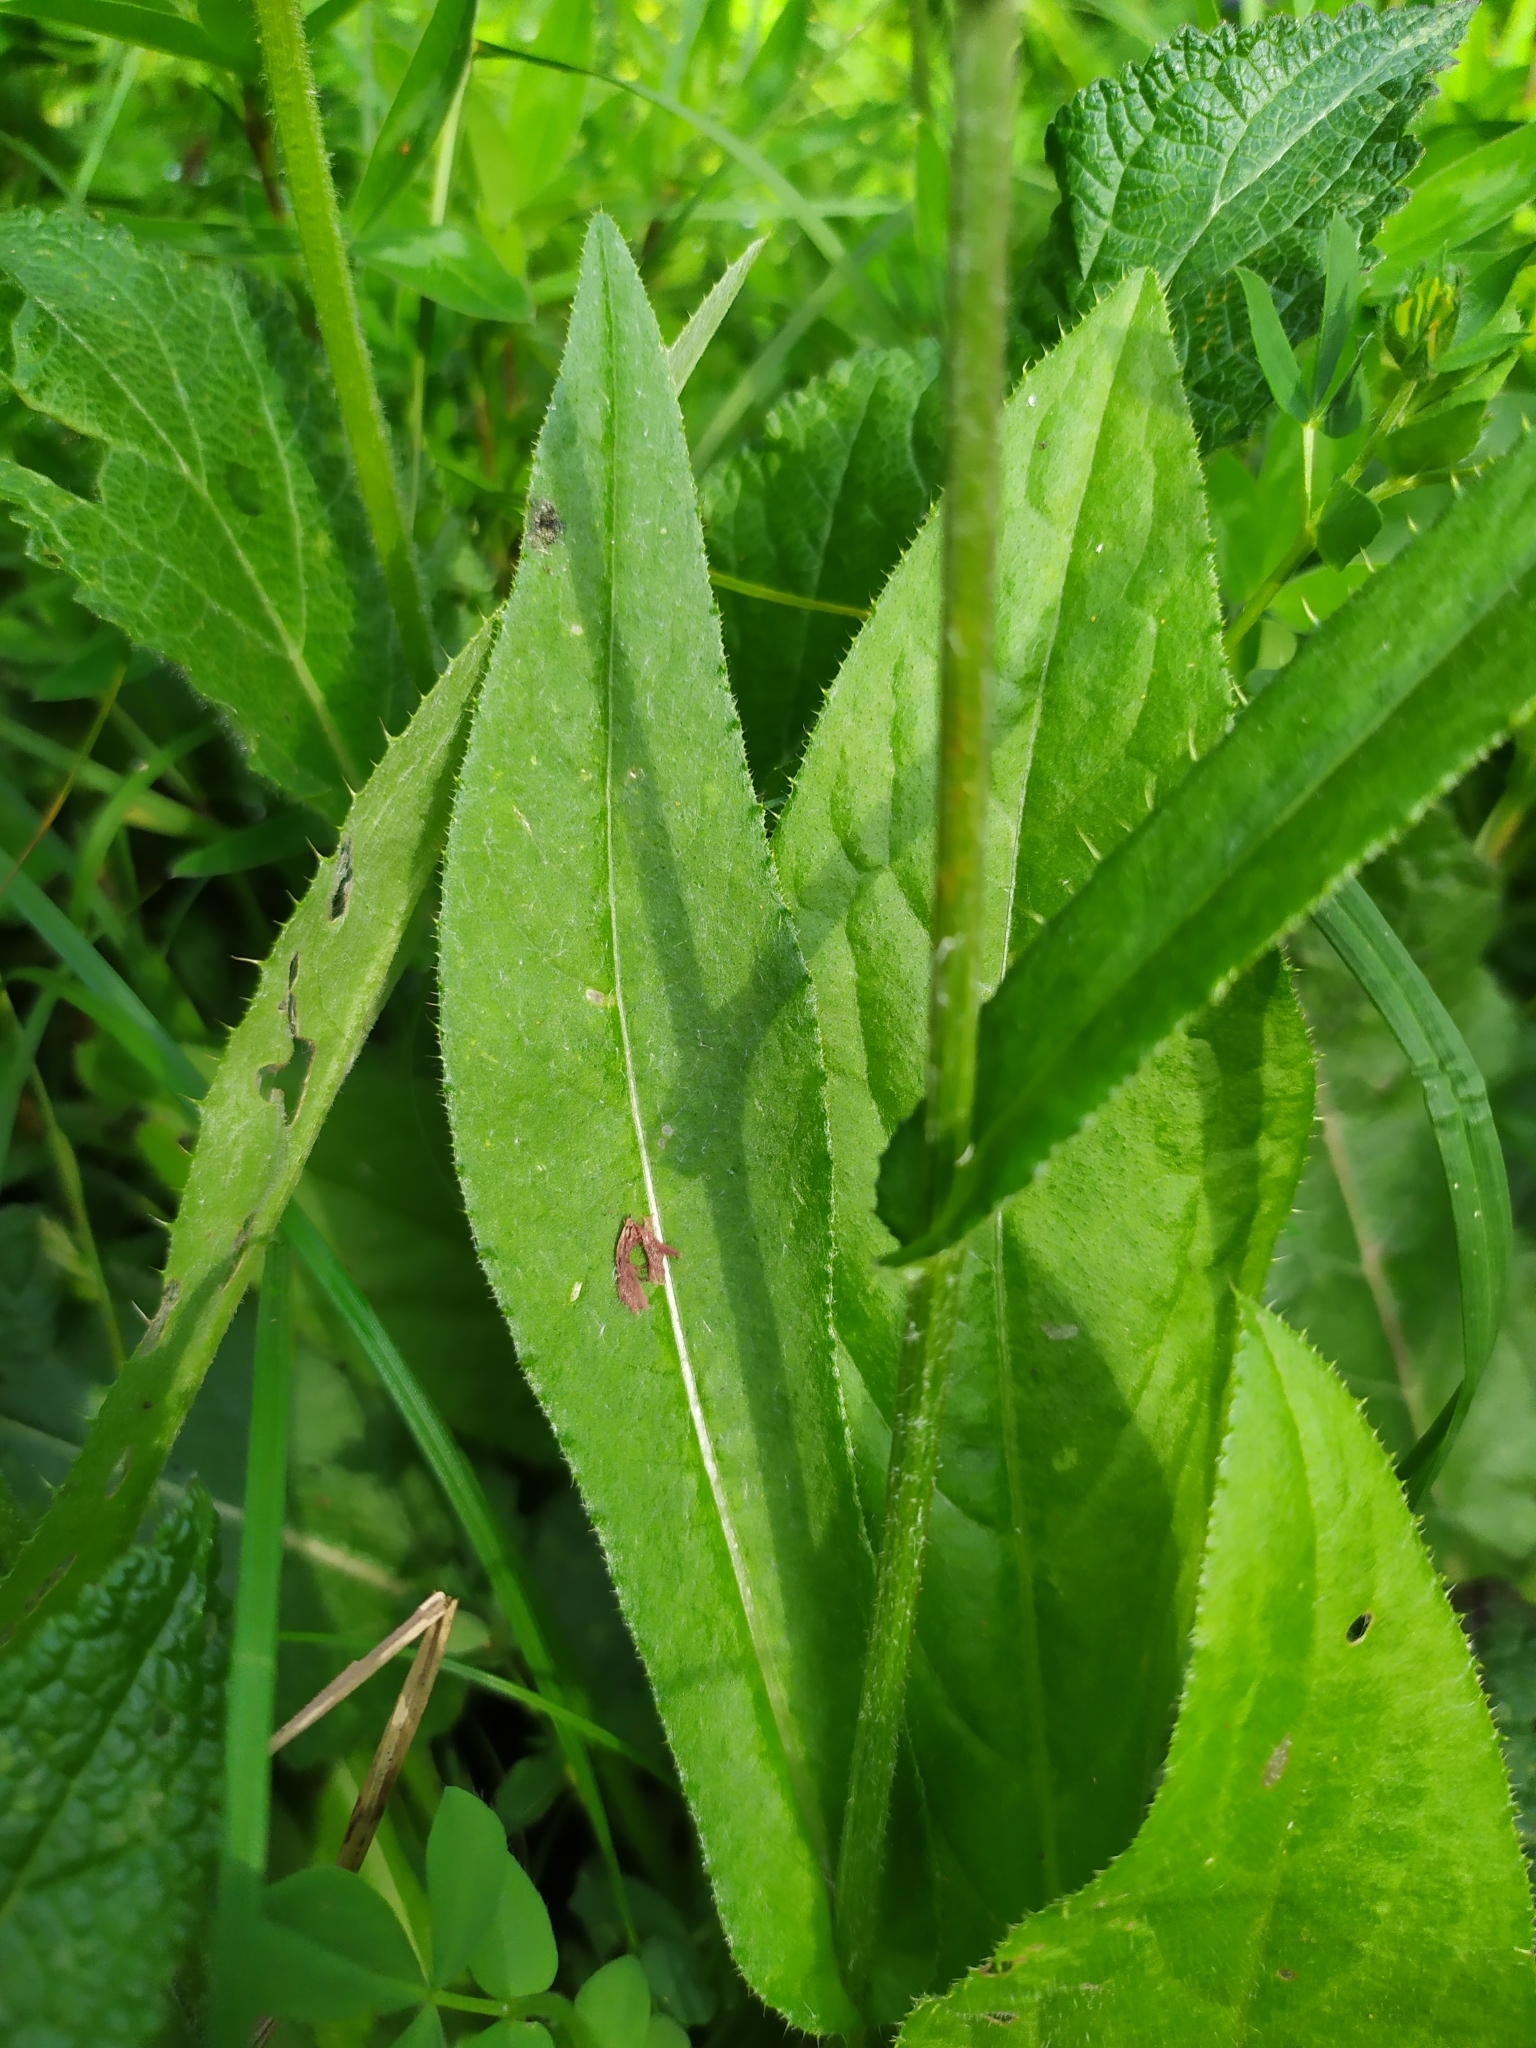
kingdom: Plantae
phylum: Tracheophyta
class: Magnoliopsida
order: Asterales
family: Asteraceae
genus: Cirsium
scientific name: Cirsium pannonicum
